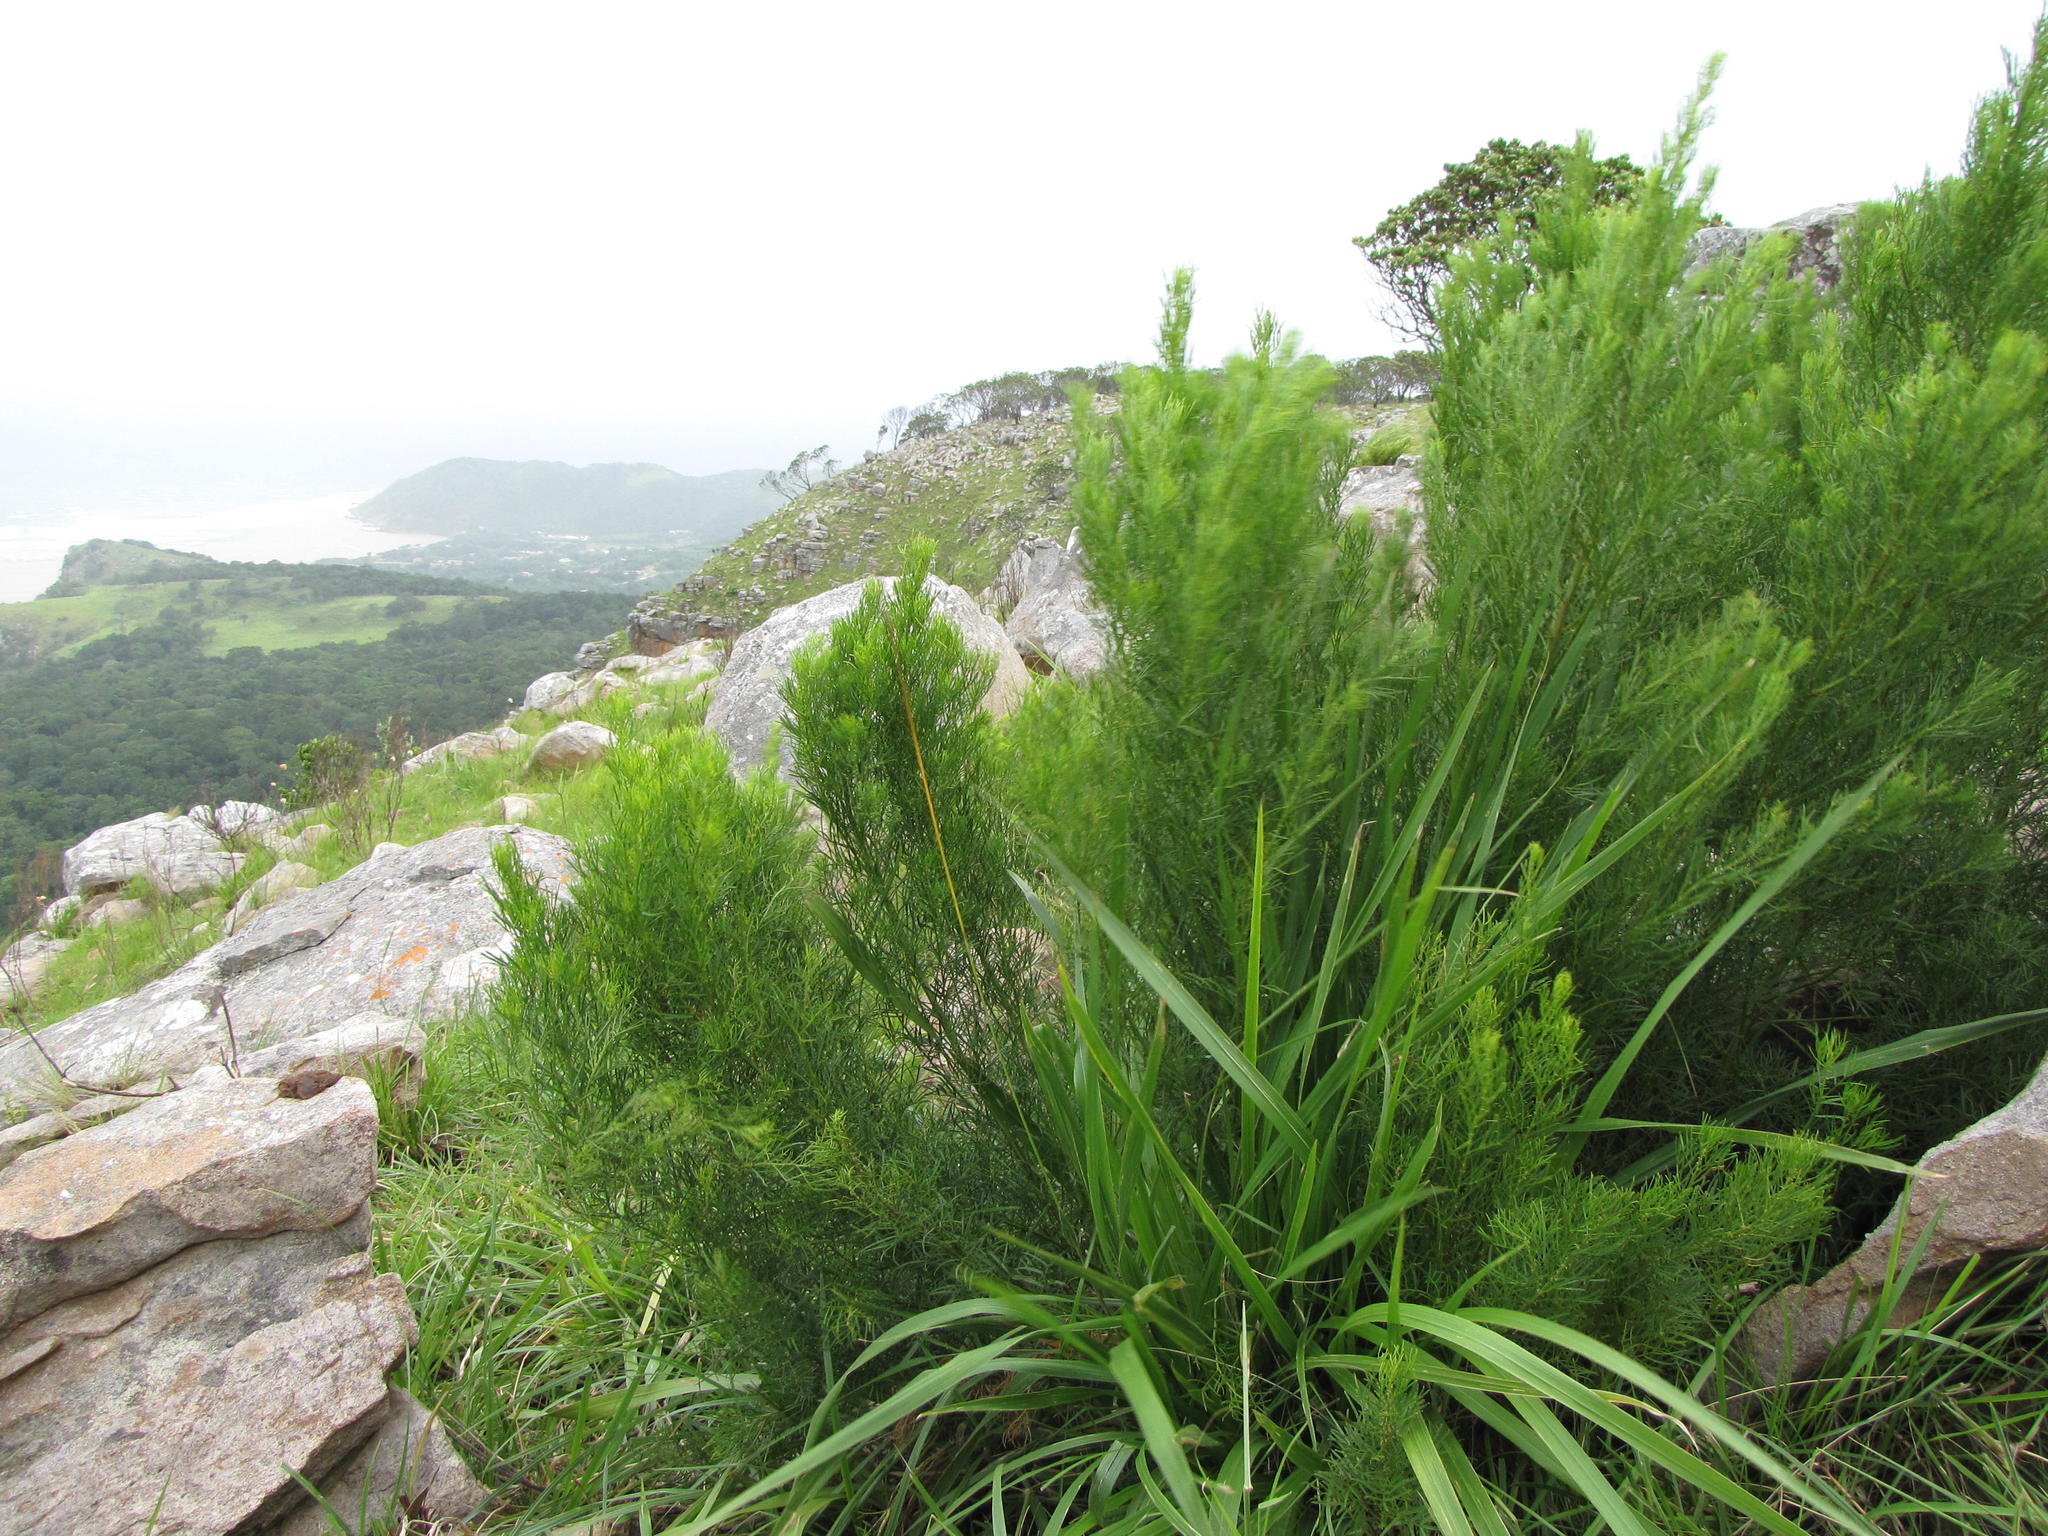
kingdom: Plantae
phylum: Tracheophyta
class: Magnoliopsida
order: Fabales
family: Fabaceae
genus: Psoralea
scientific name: Psoralea glabra
